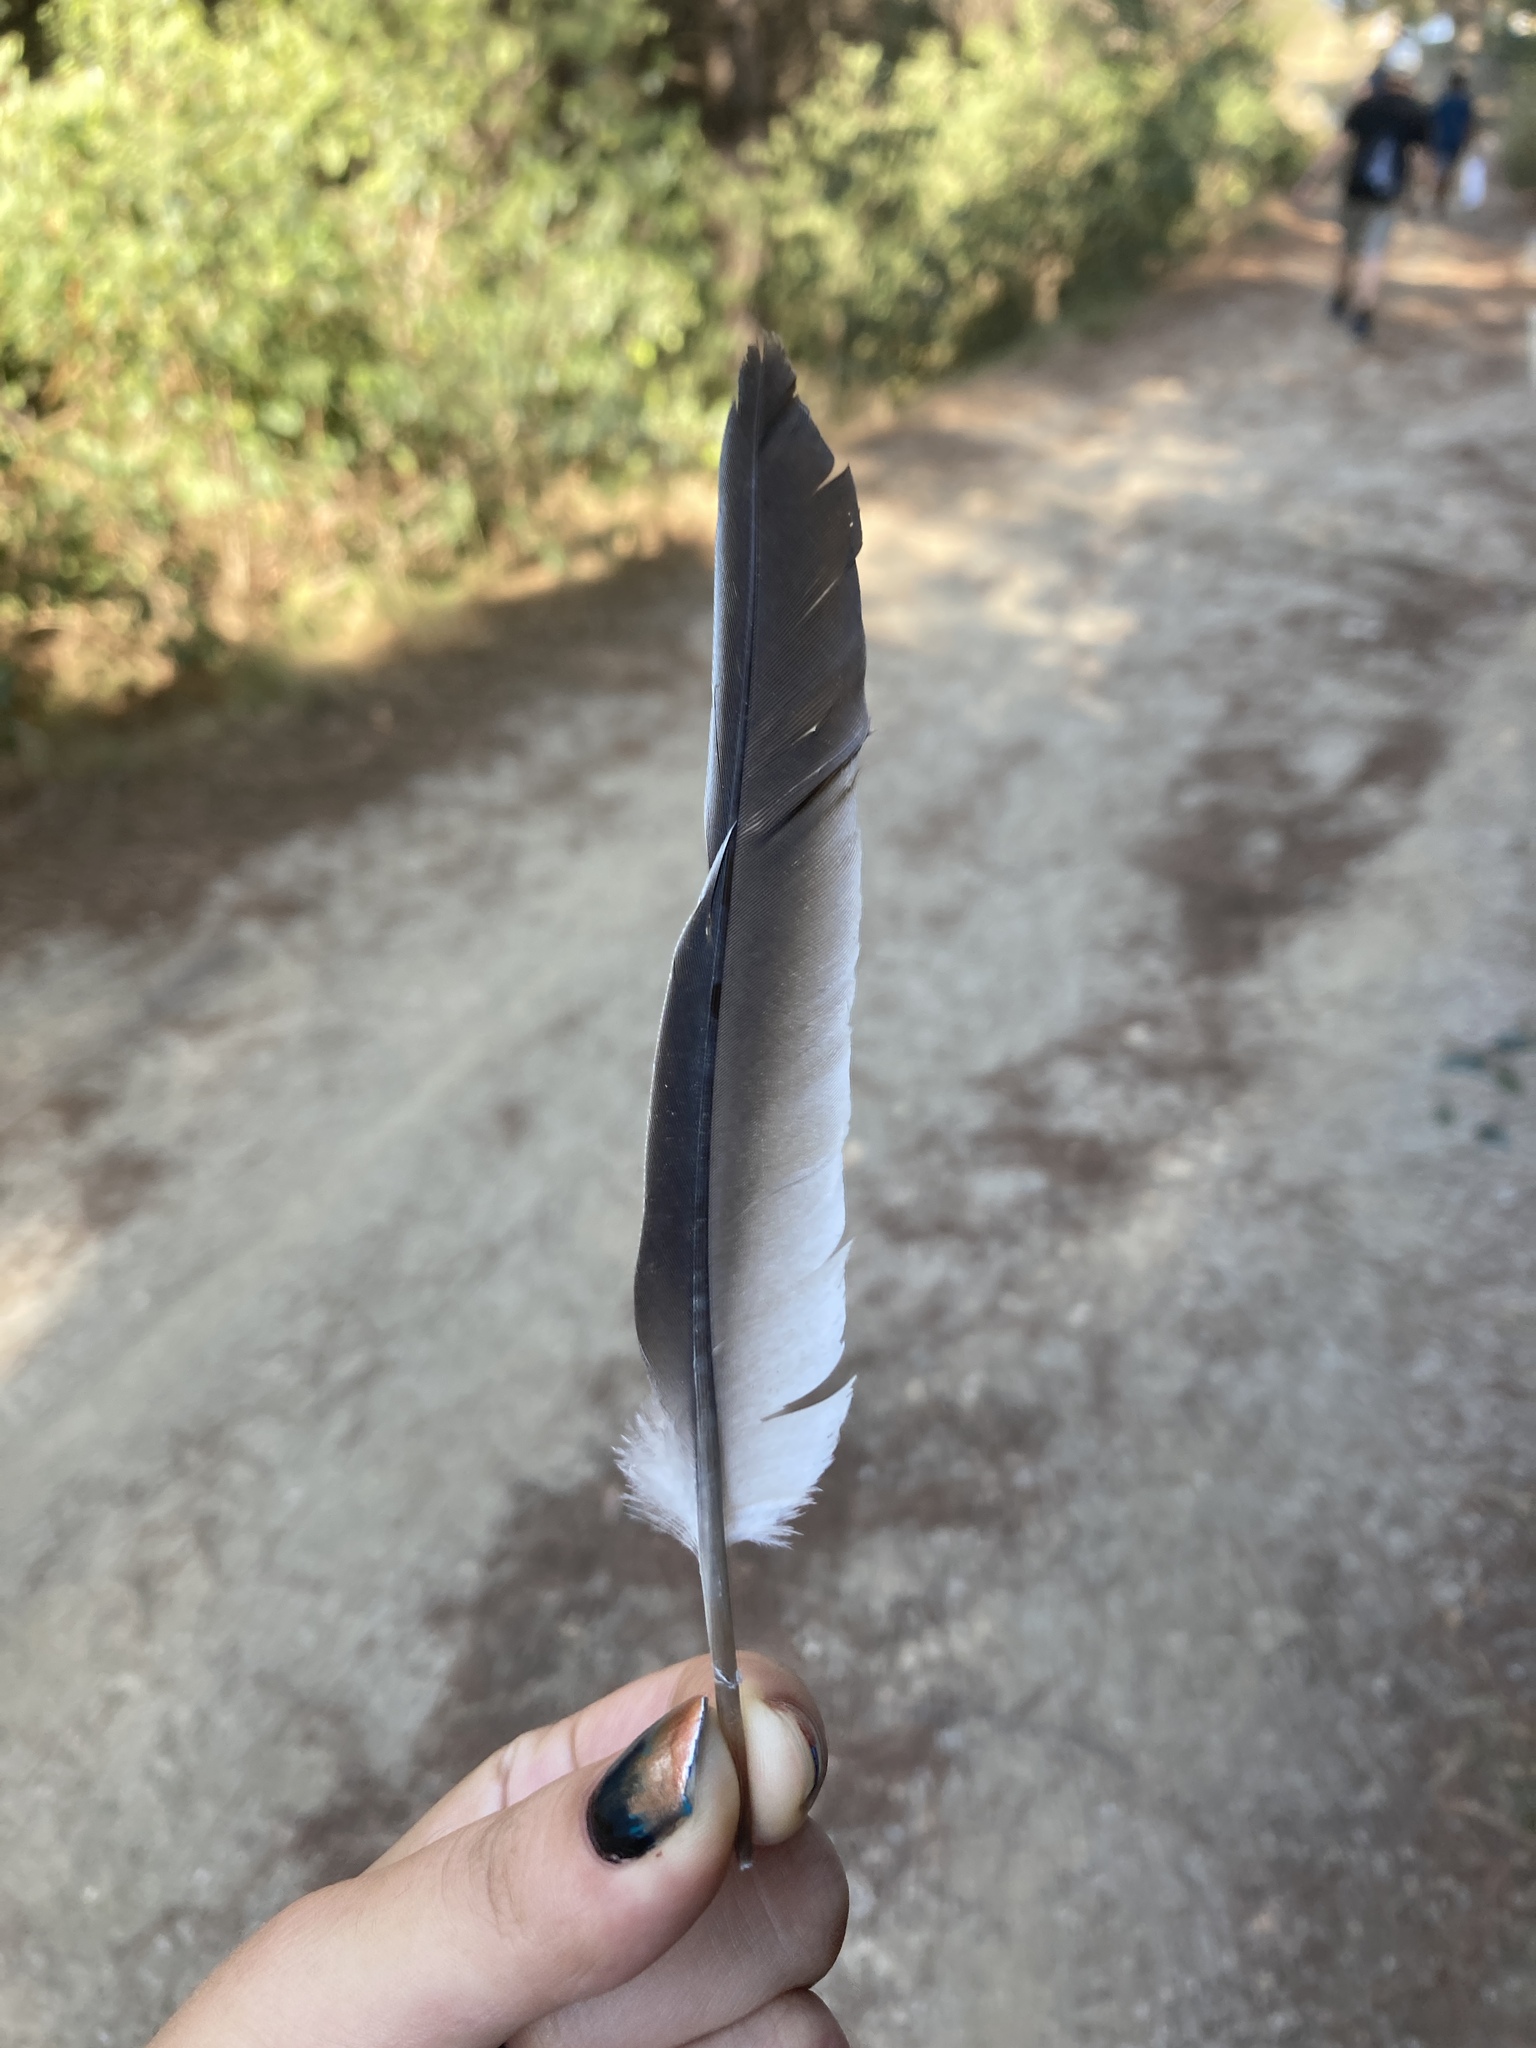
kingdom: Animalia
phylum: Chordata
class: Aves
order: Columbiformes
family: Columbidae
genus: Streptopelia
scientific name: Streptopelia decaocto
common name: Eurasian collared dove
